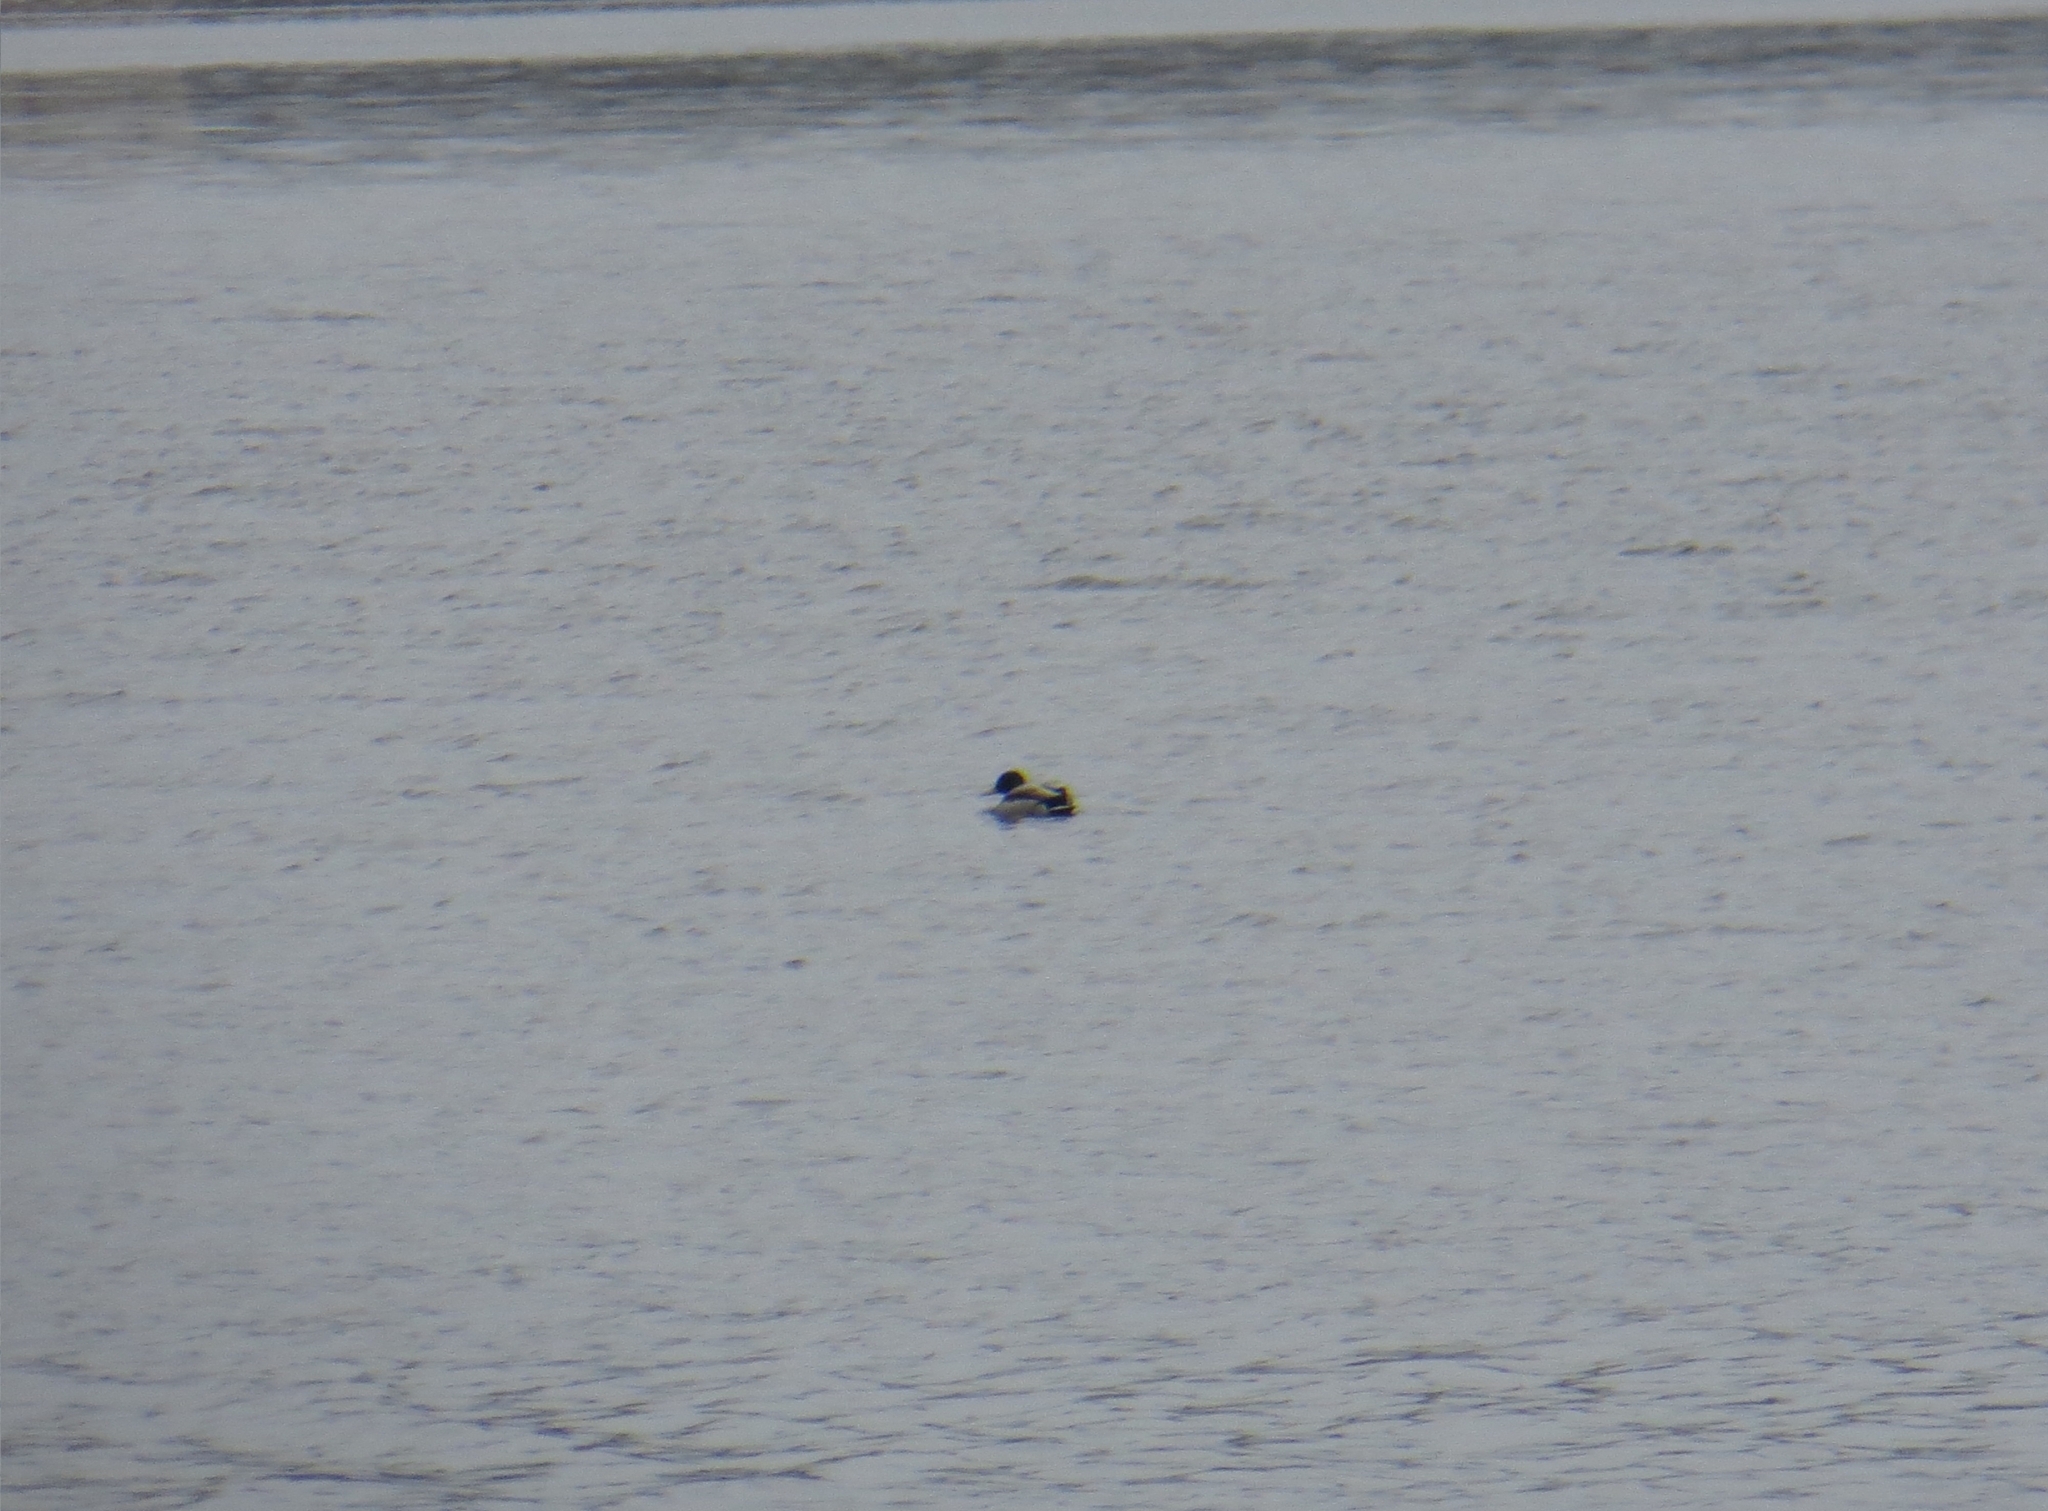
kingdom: Animalia
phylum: Chordata
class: Aves
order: Anseriformes
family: Anatidae
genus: Anas
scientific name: Anas platyrhynchos
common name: Mallard
